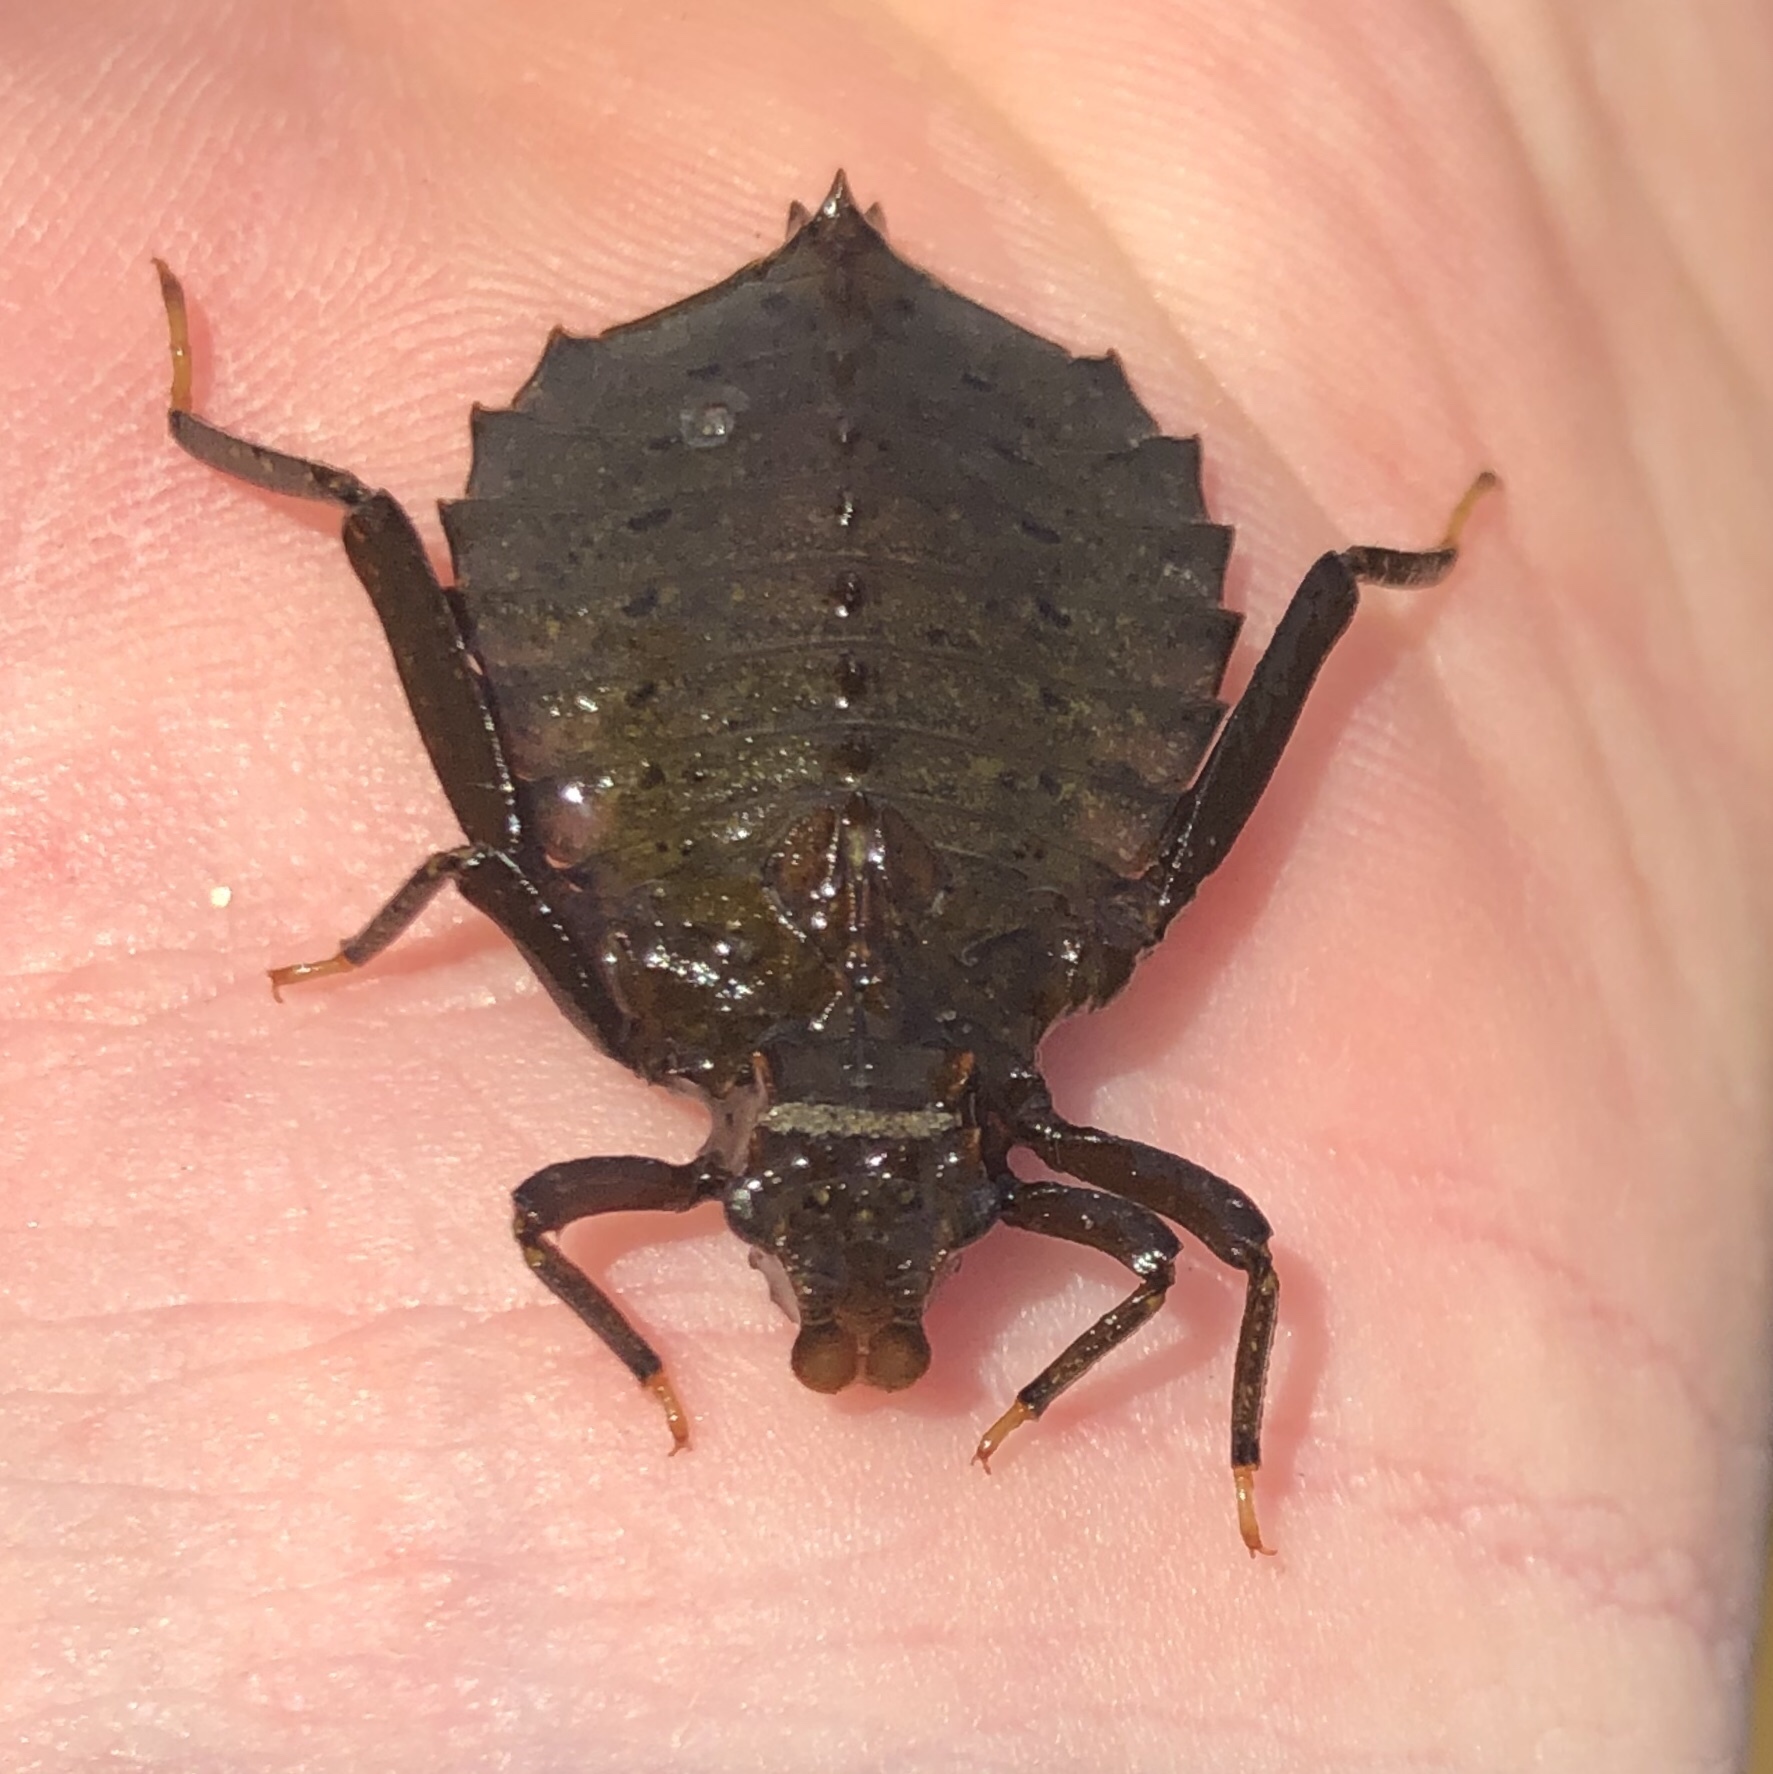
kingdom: Animalia
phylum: Arthropoda
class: Insecta
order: Odonata
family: Gomphidae
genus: Hagenius
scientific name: Hagenius brevistylus
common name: Dragonhunter
